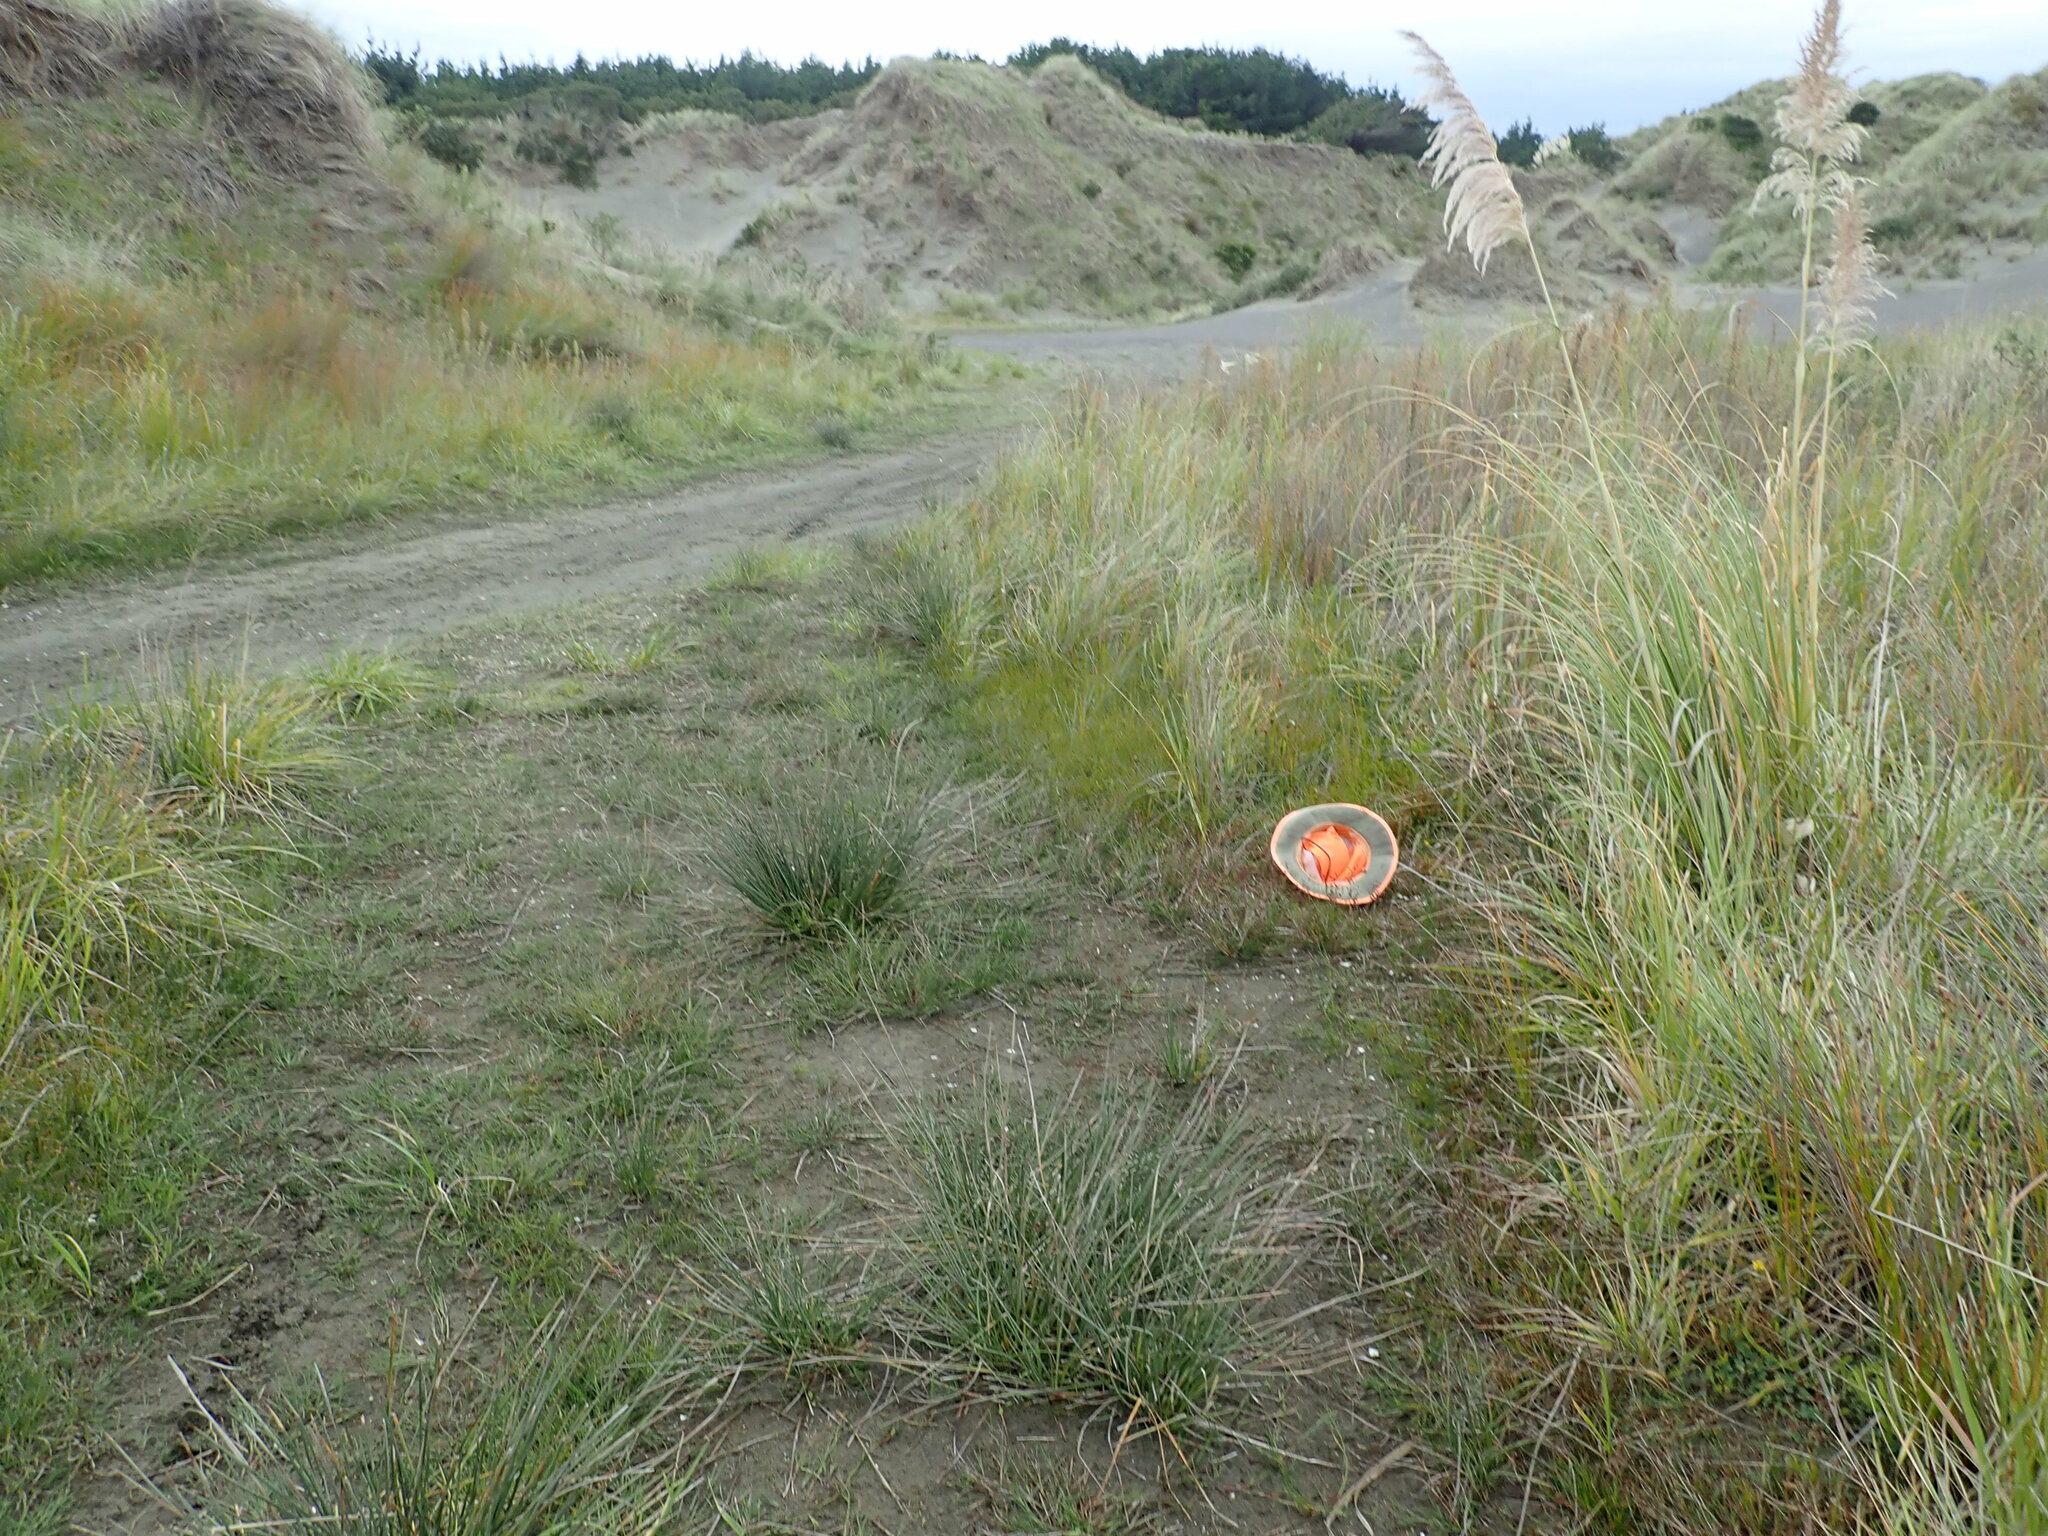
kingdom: Plantae
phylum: Tracheophyta
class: Liliopsida
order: Poales
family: Juncaceae
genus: Juncus
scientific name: Juncus caespiticius
